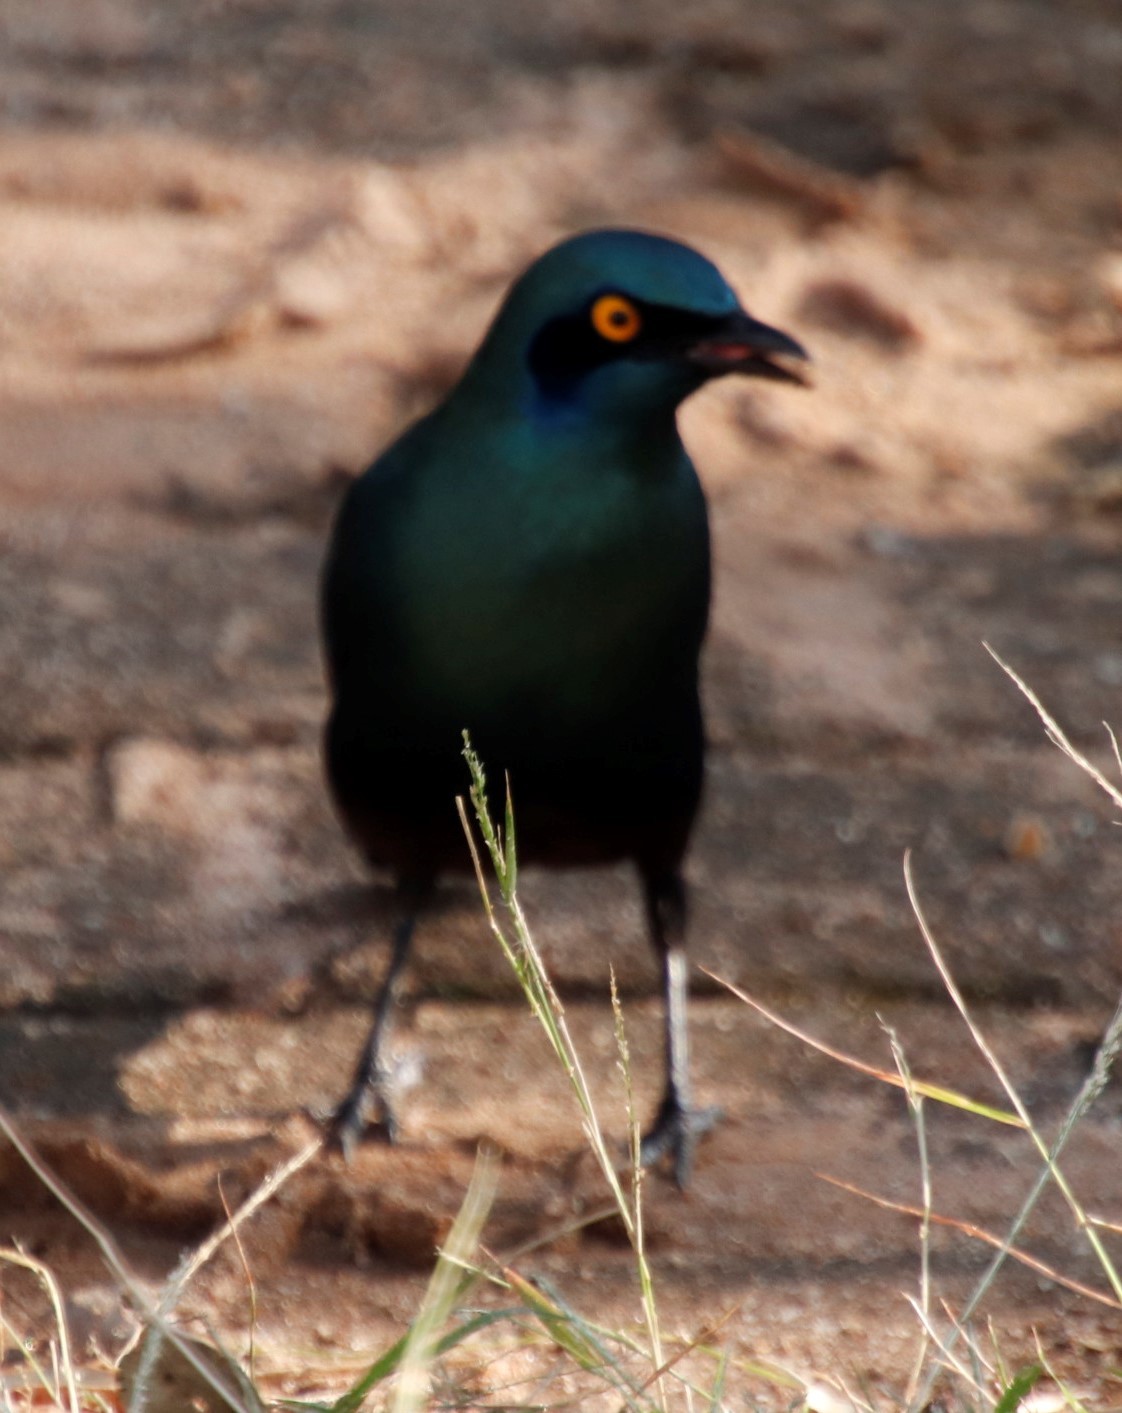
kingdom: Animalia
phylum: Chordata
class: Aves
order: Passeriformes
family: Sturnidae
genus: Lamprotornis
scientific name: Lamprotornis nitens
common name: Cape starling
